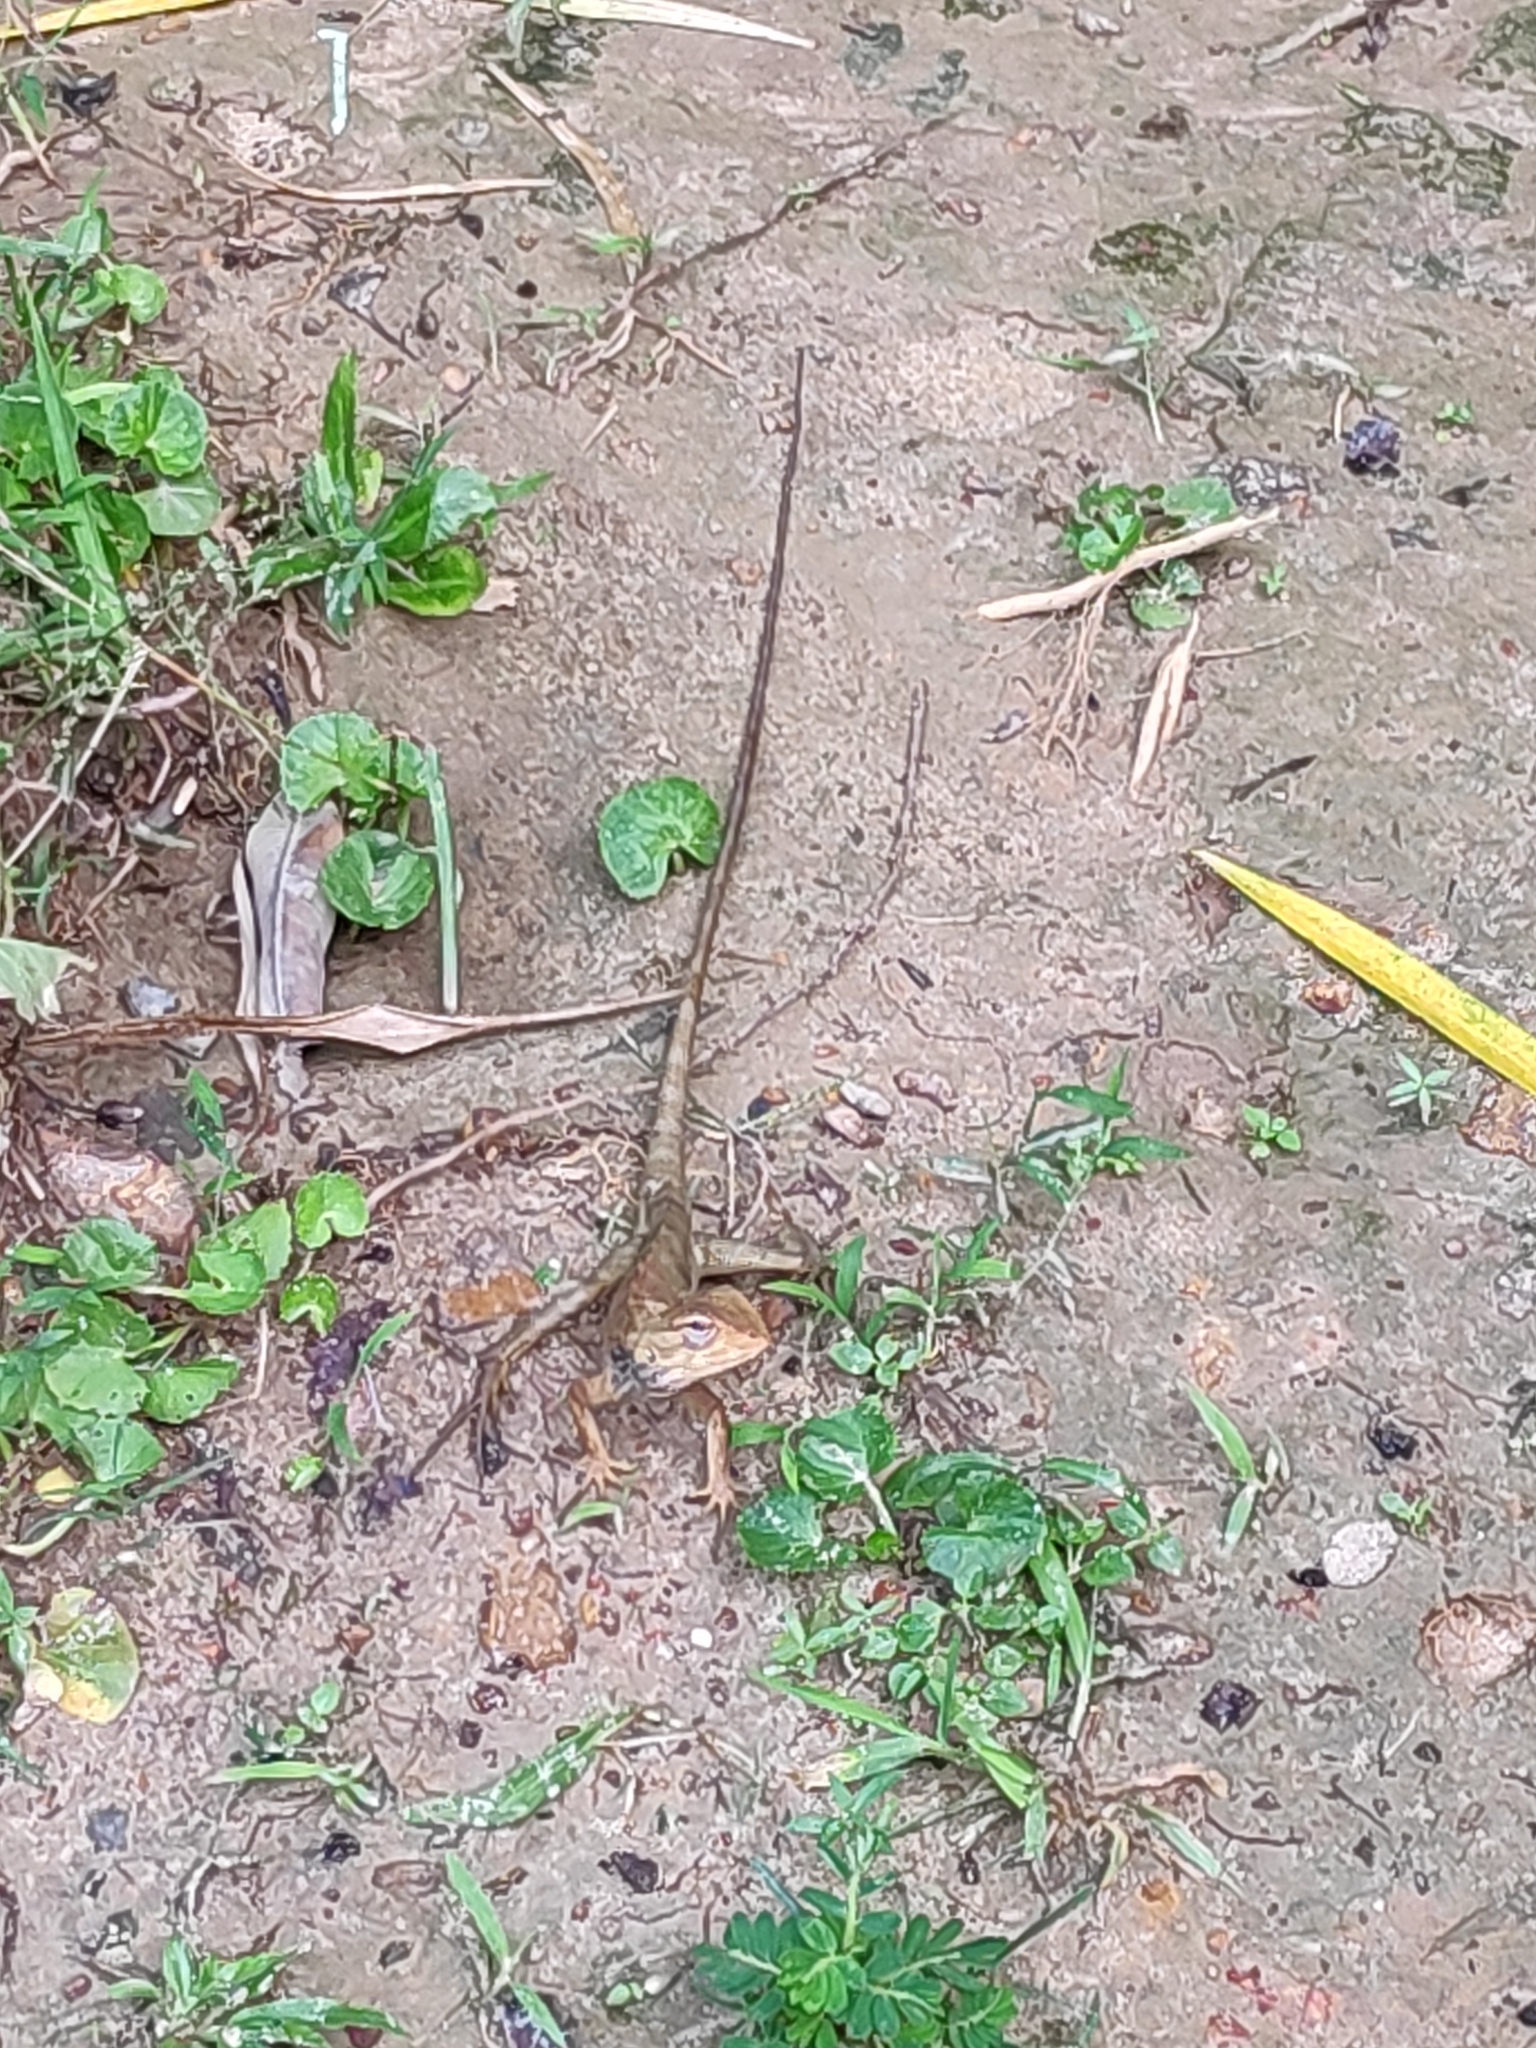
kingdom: Animalia
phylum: Chordata
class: Squamata
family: Agamidae
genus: Calotes
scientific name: Calotes versicolor
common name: Oriental garden lizard
